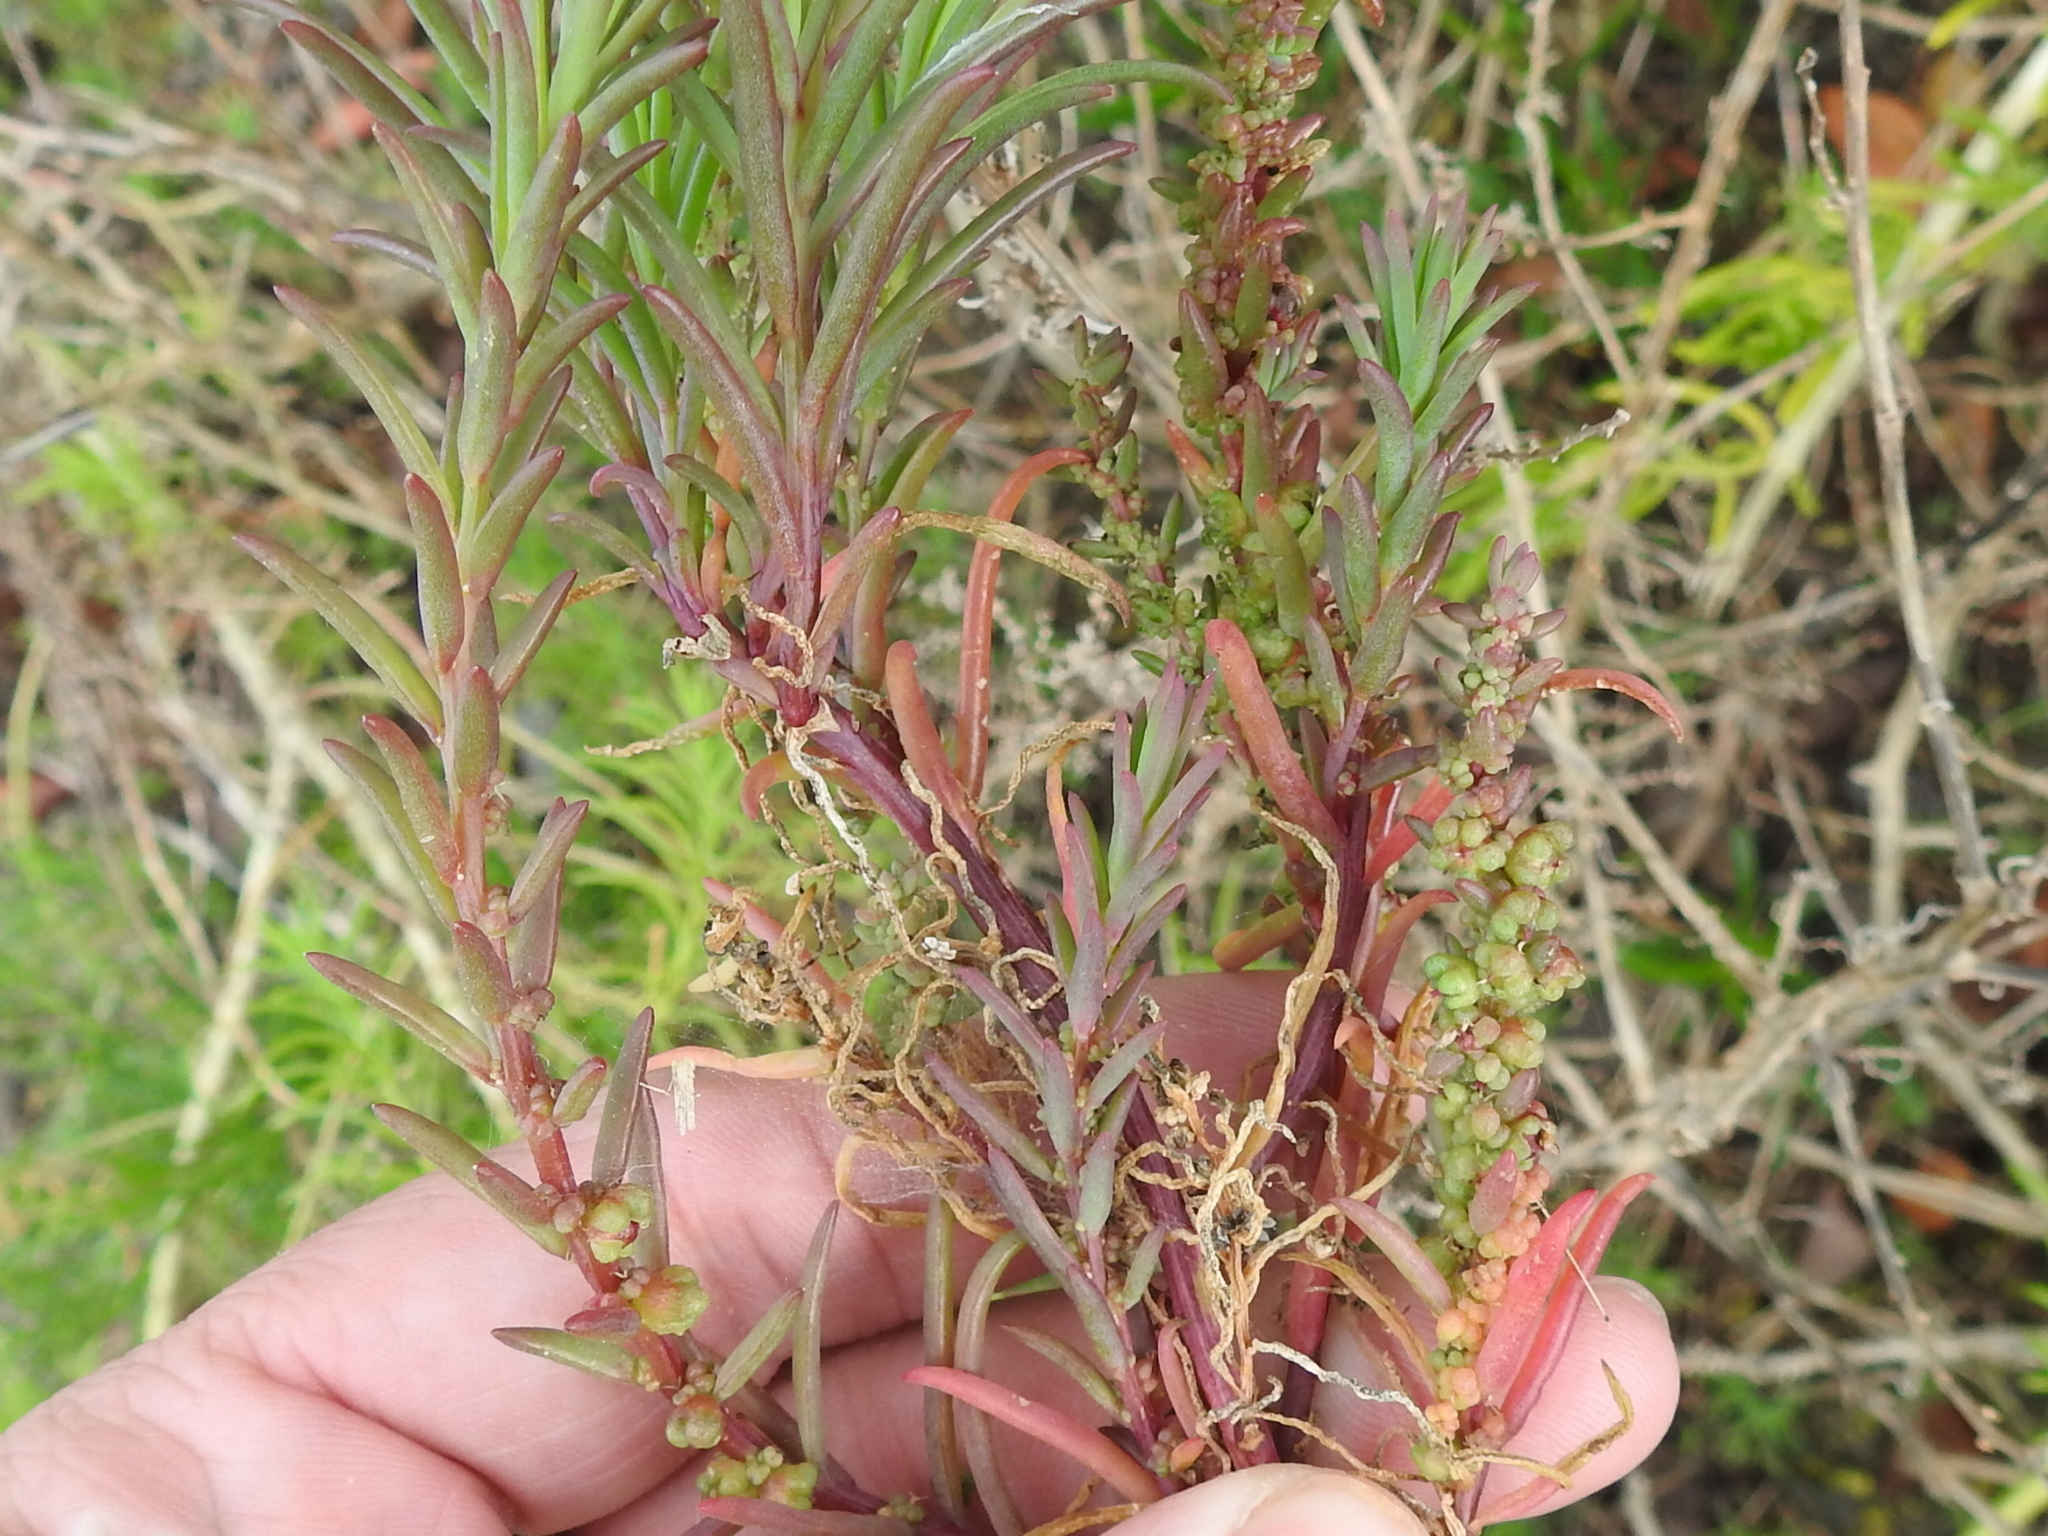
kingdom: Plantae
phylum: Tracheophyta
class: Magnoliopsida
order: Caryophyllales
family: Amaranthaceae
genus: Suaeda
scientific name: Suaeda linearis
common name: Annual seepweed
